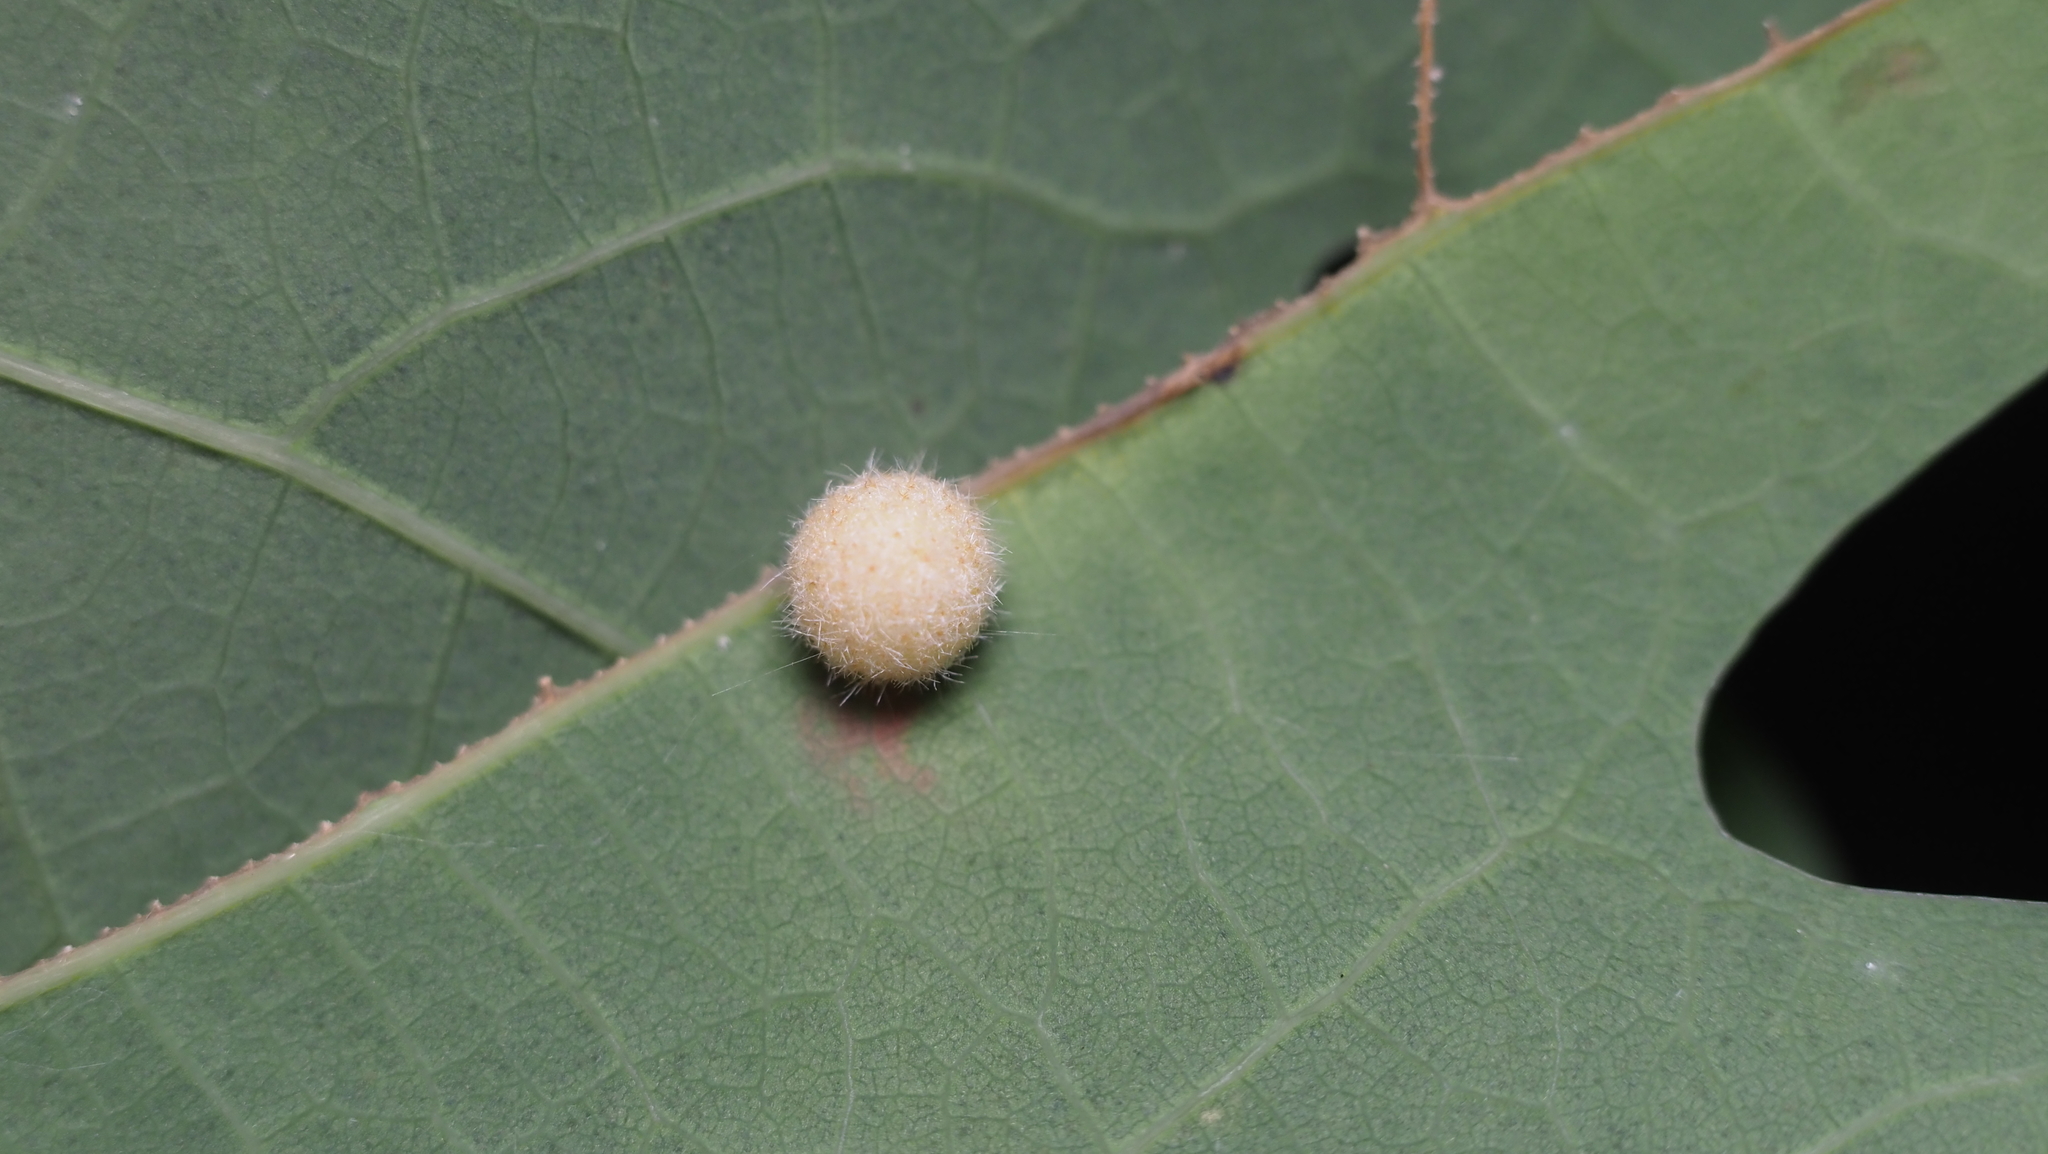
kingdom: Animalia
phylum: Arthropoda
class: Insecta
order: Hymenoptera
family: Cynipidae
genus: Philonix
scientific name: Philonix fulvicollis
